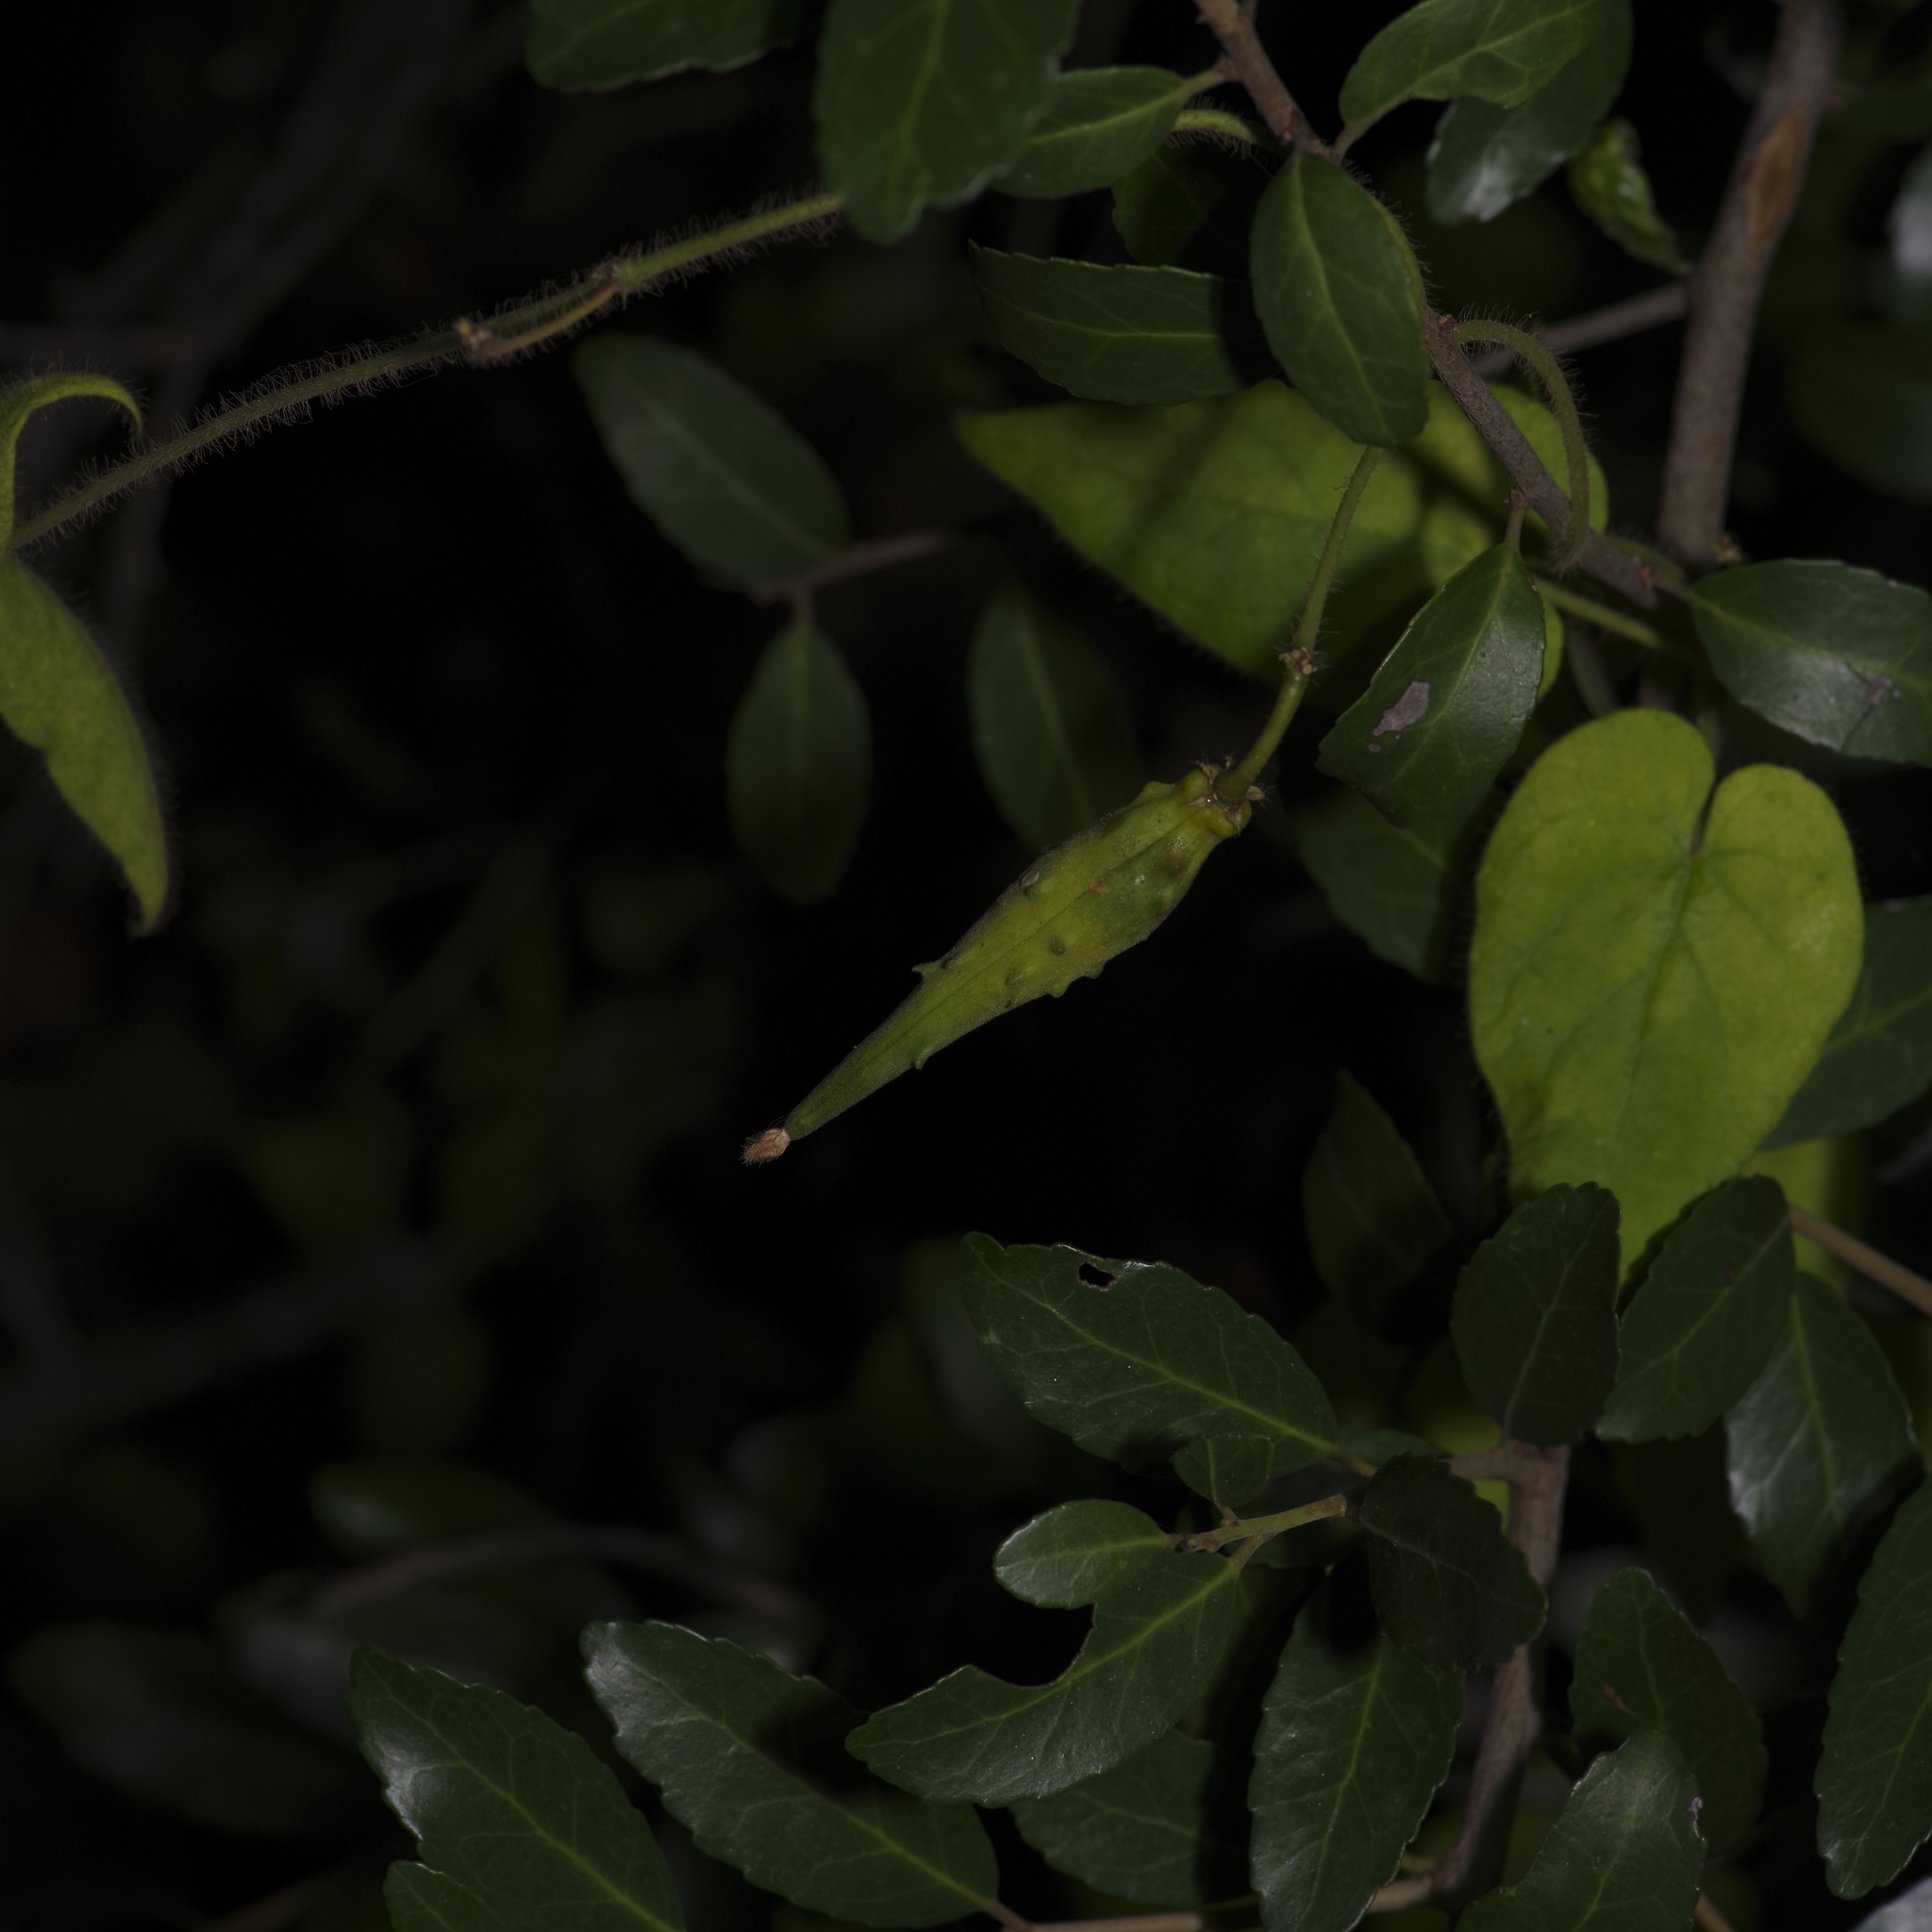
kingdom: Plantae
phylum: Tracheophyta
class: Magnoliopsida
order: Gentianales
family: Apocynaceae
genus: Dictyanthus
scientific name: Dictyanthus reticulatus
